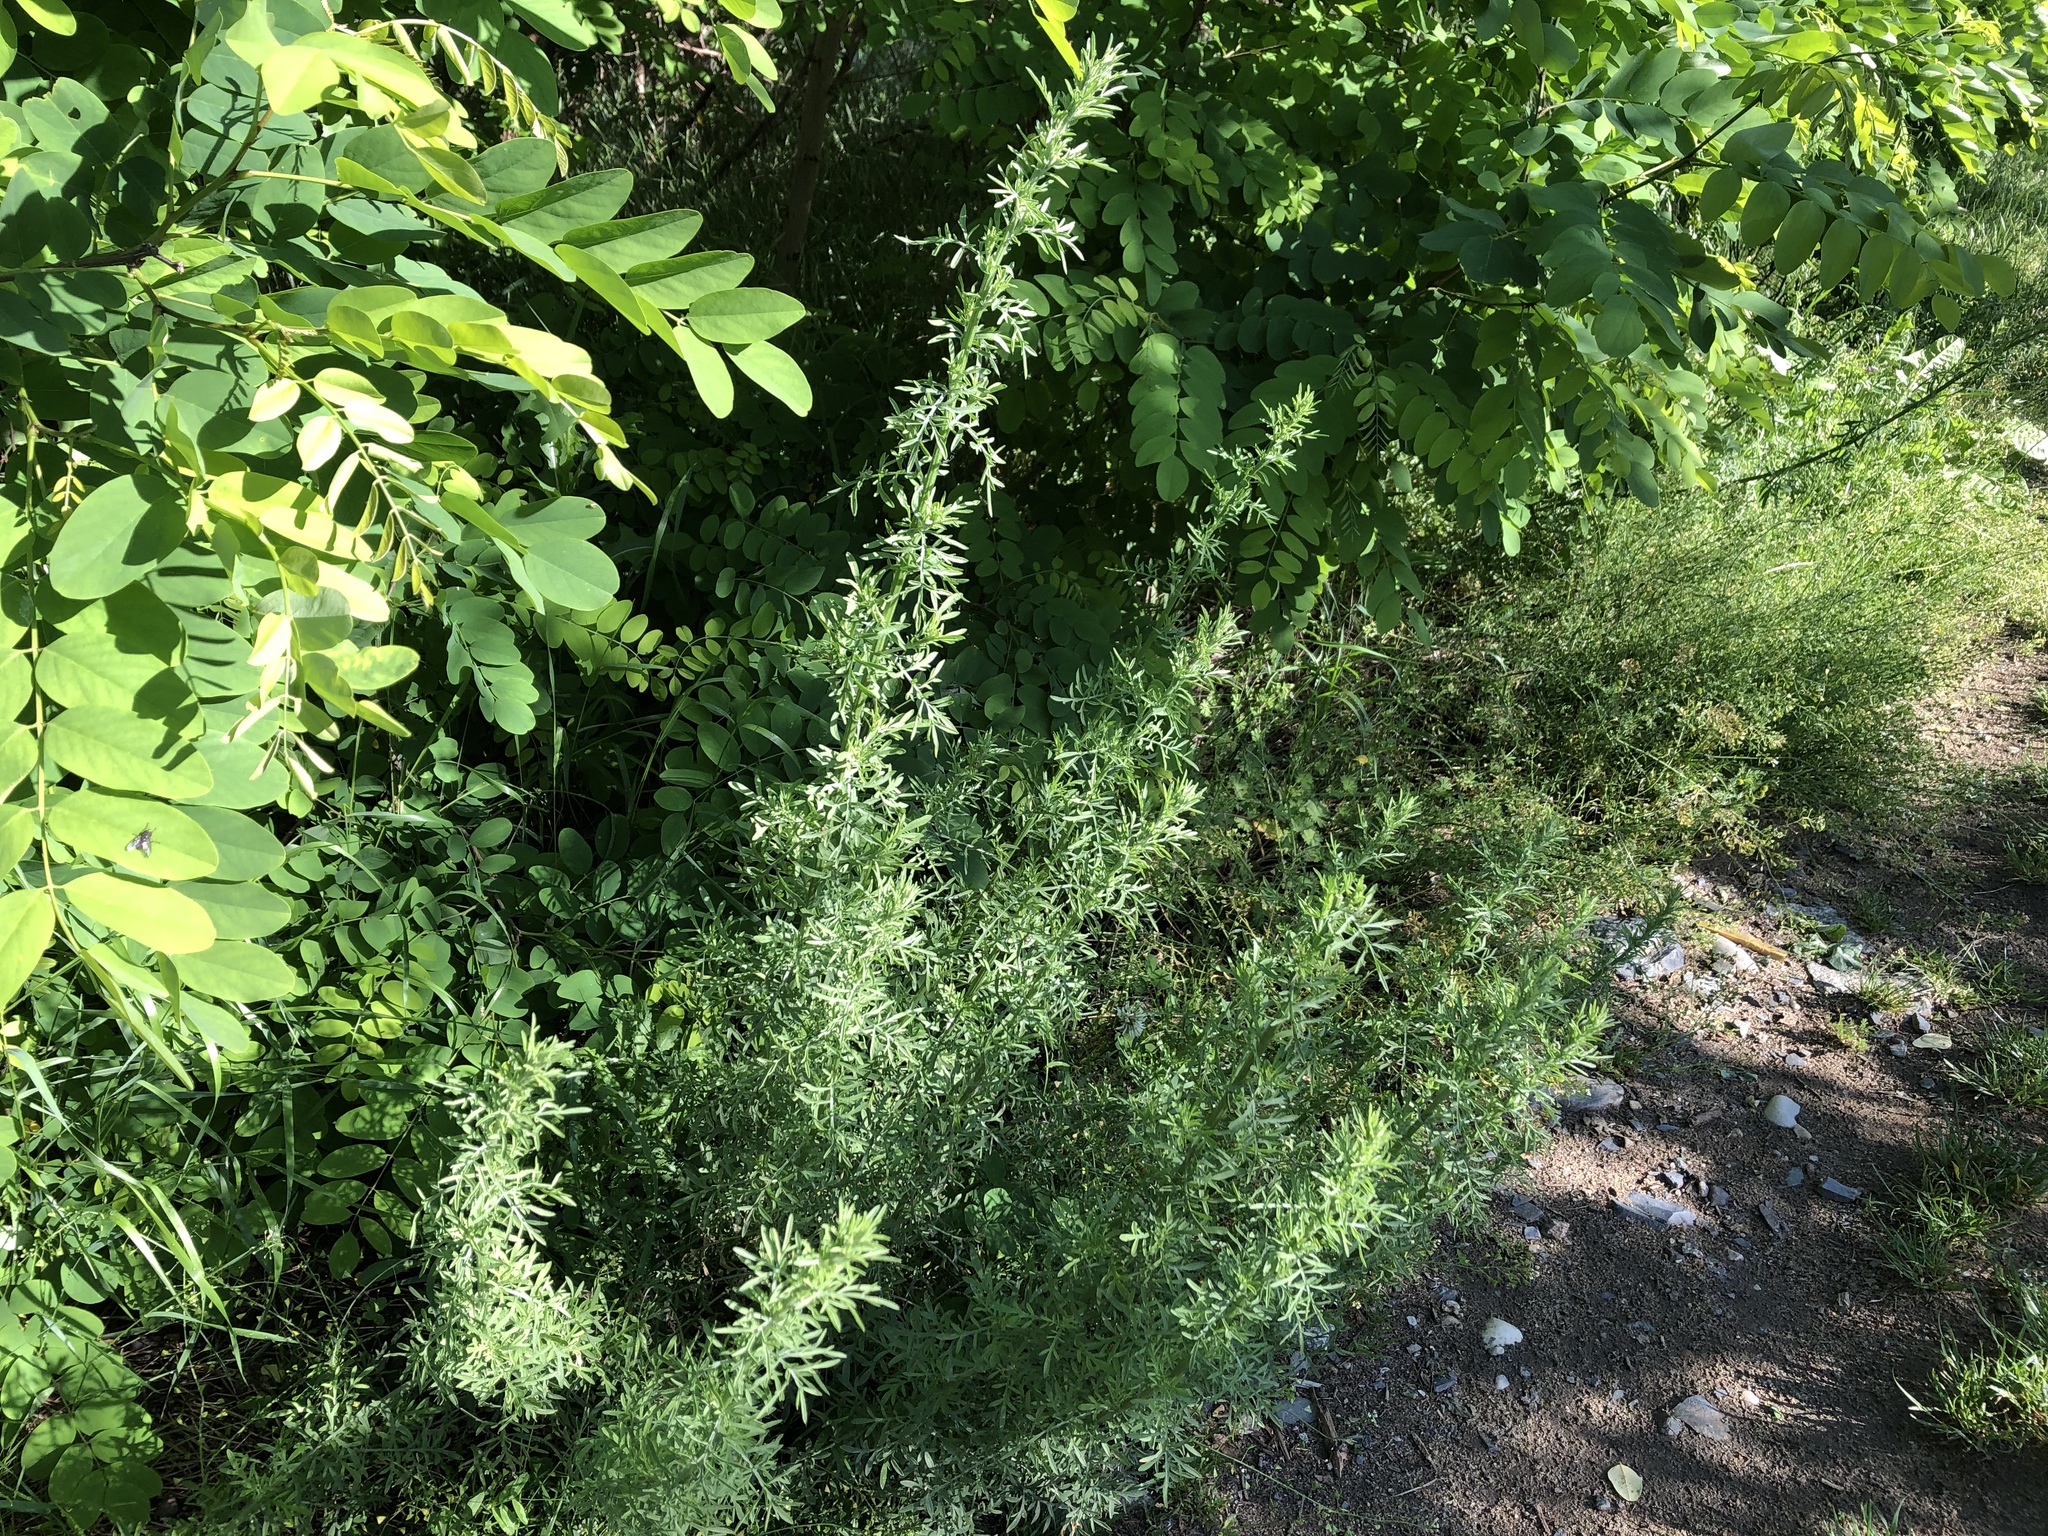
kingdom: Plantae
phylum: Tracheophyta
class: Magnoliopsida
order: Asterales
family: Asteraceae
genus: Centaurea
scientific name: Centaurea stoebe
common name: Spotted knapweed
